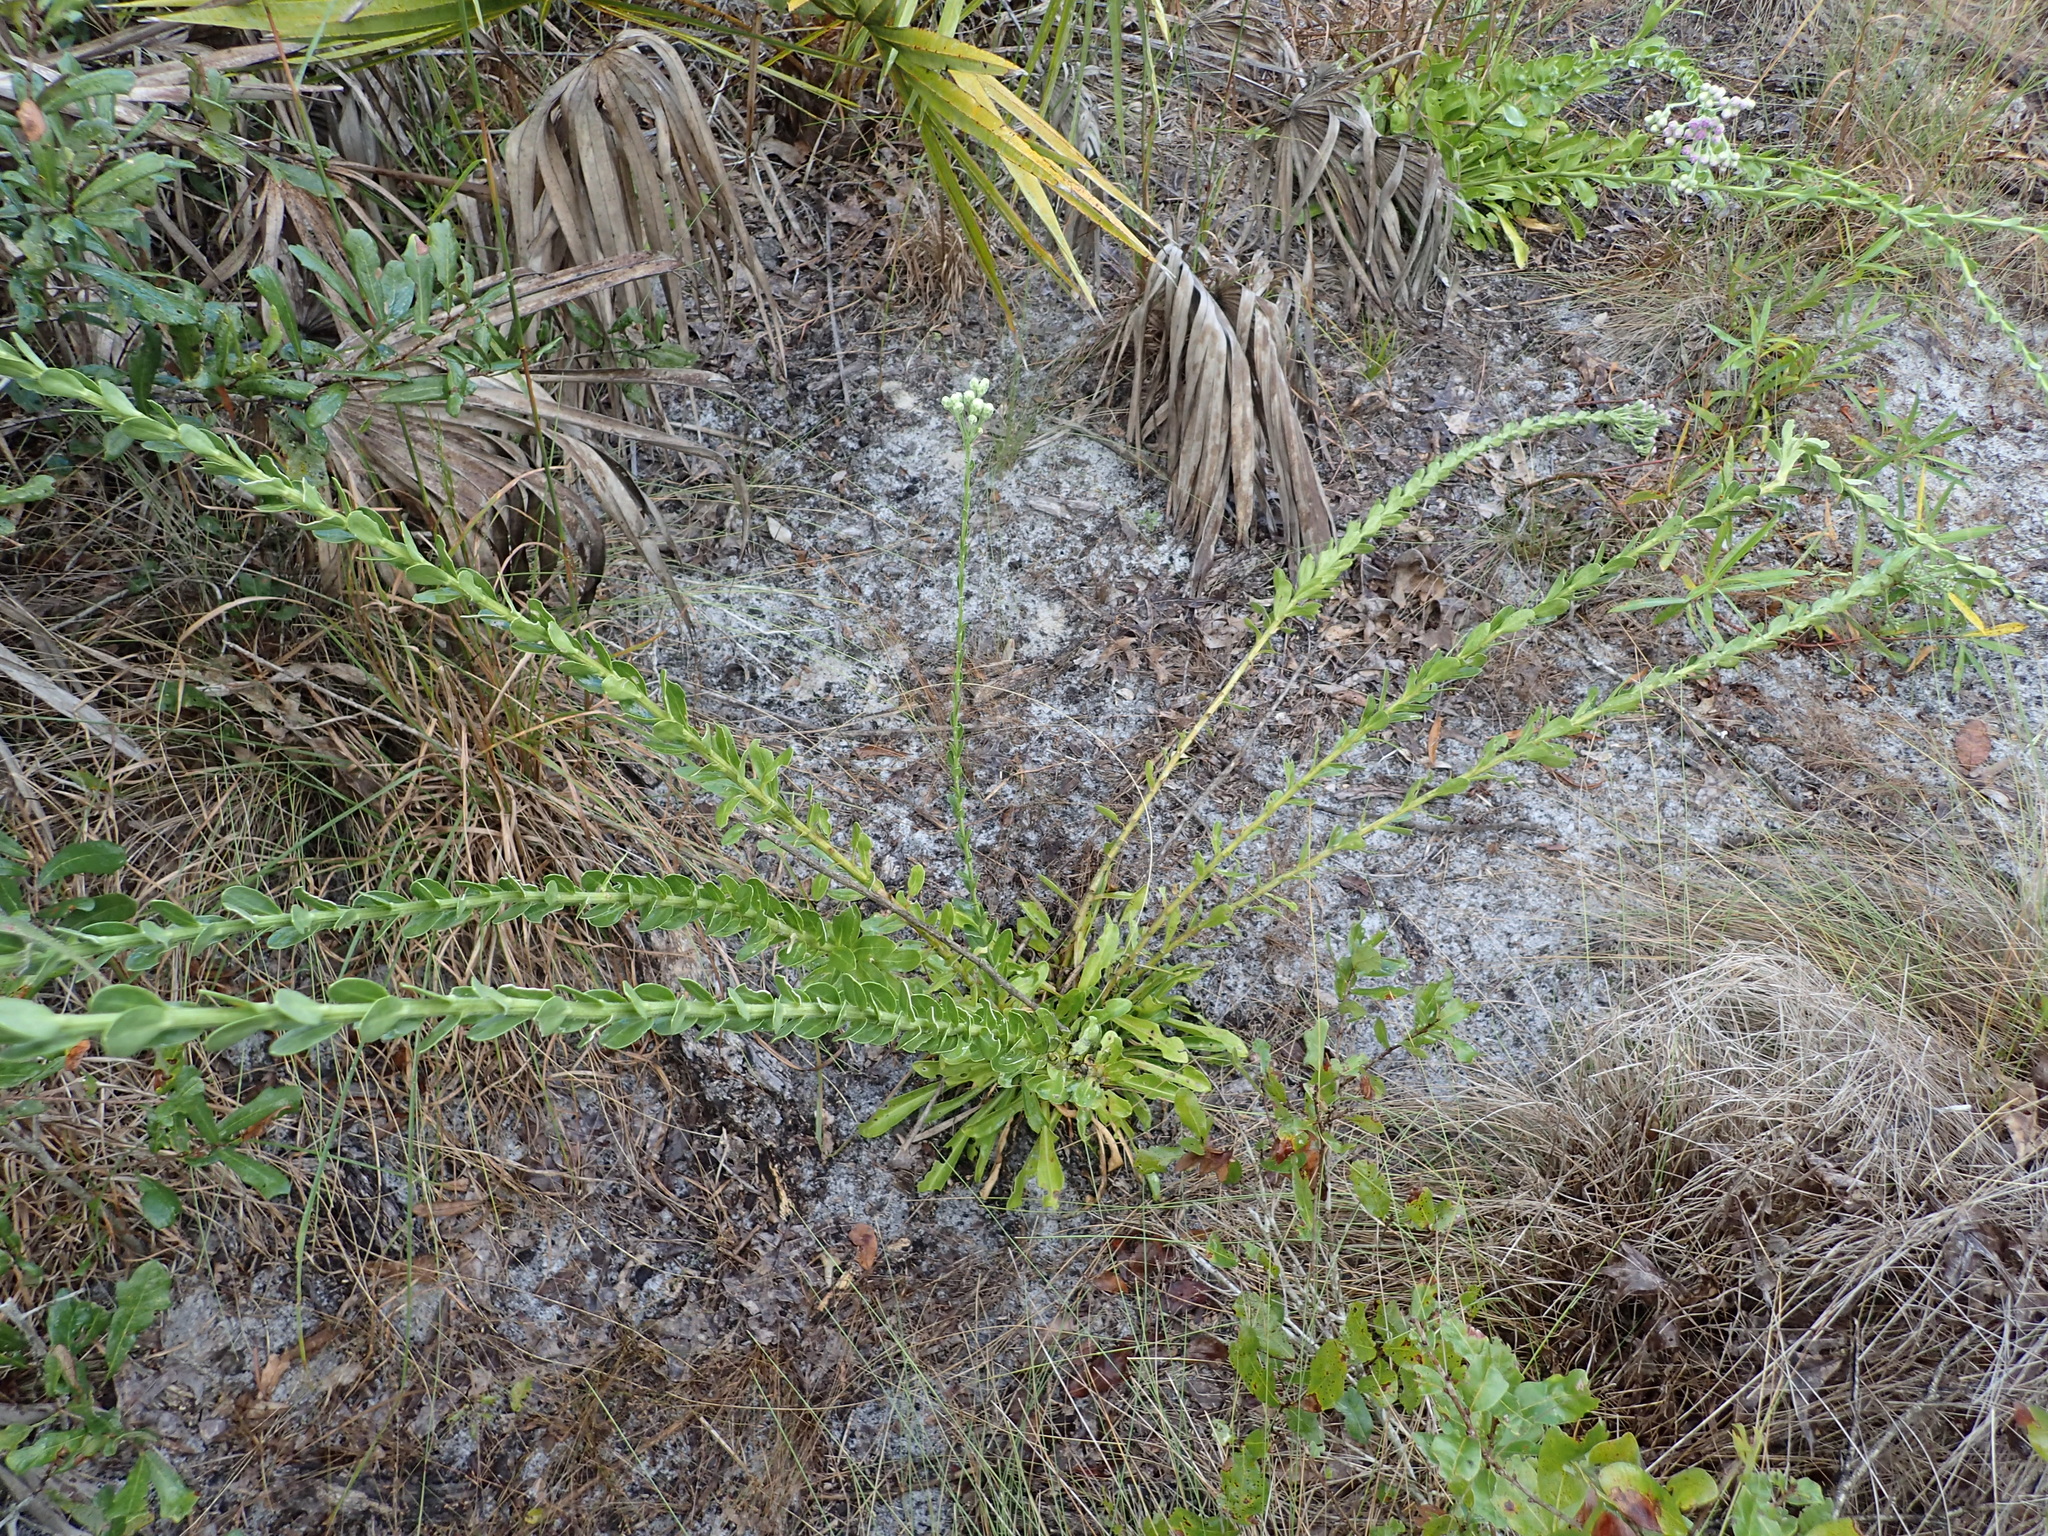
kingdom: Plantae
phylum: Tracheophyta
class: Magnoliopsida
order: Asterales
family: Asteraceae
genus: Carphephorus
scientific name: Carphephorus corymbosus
